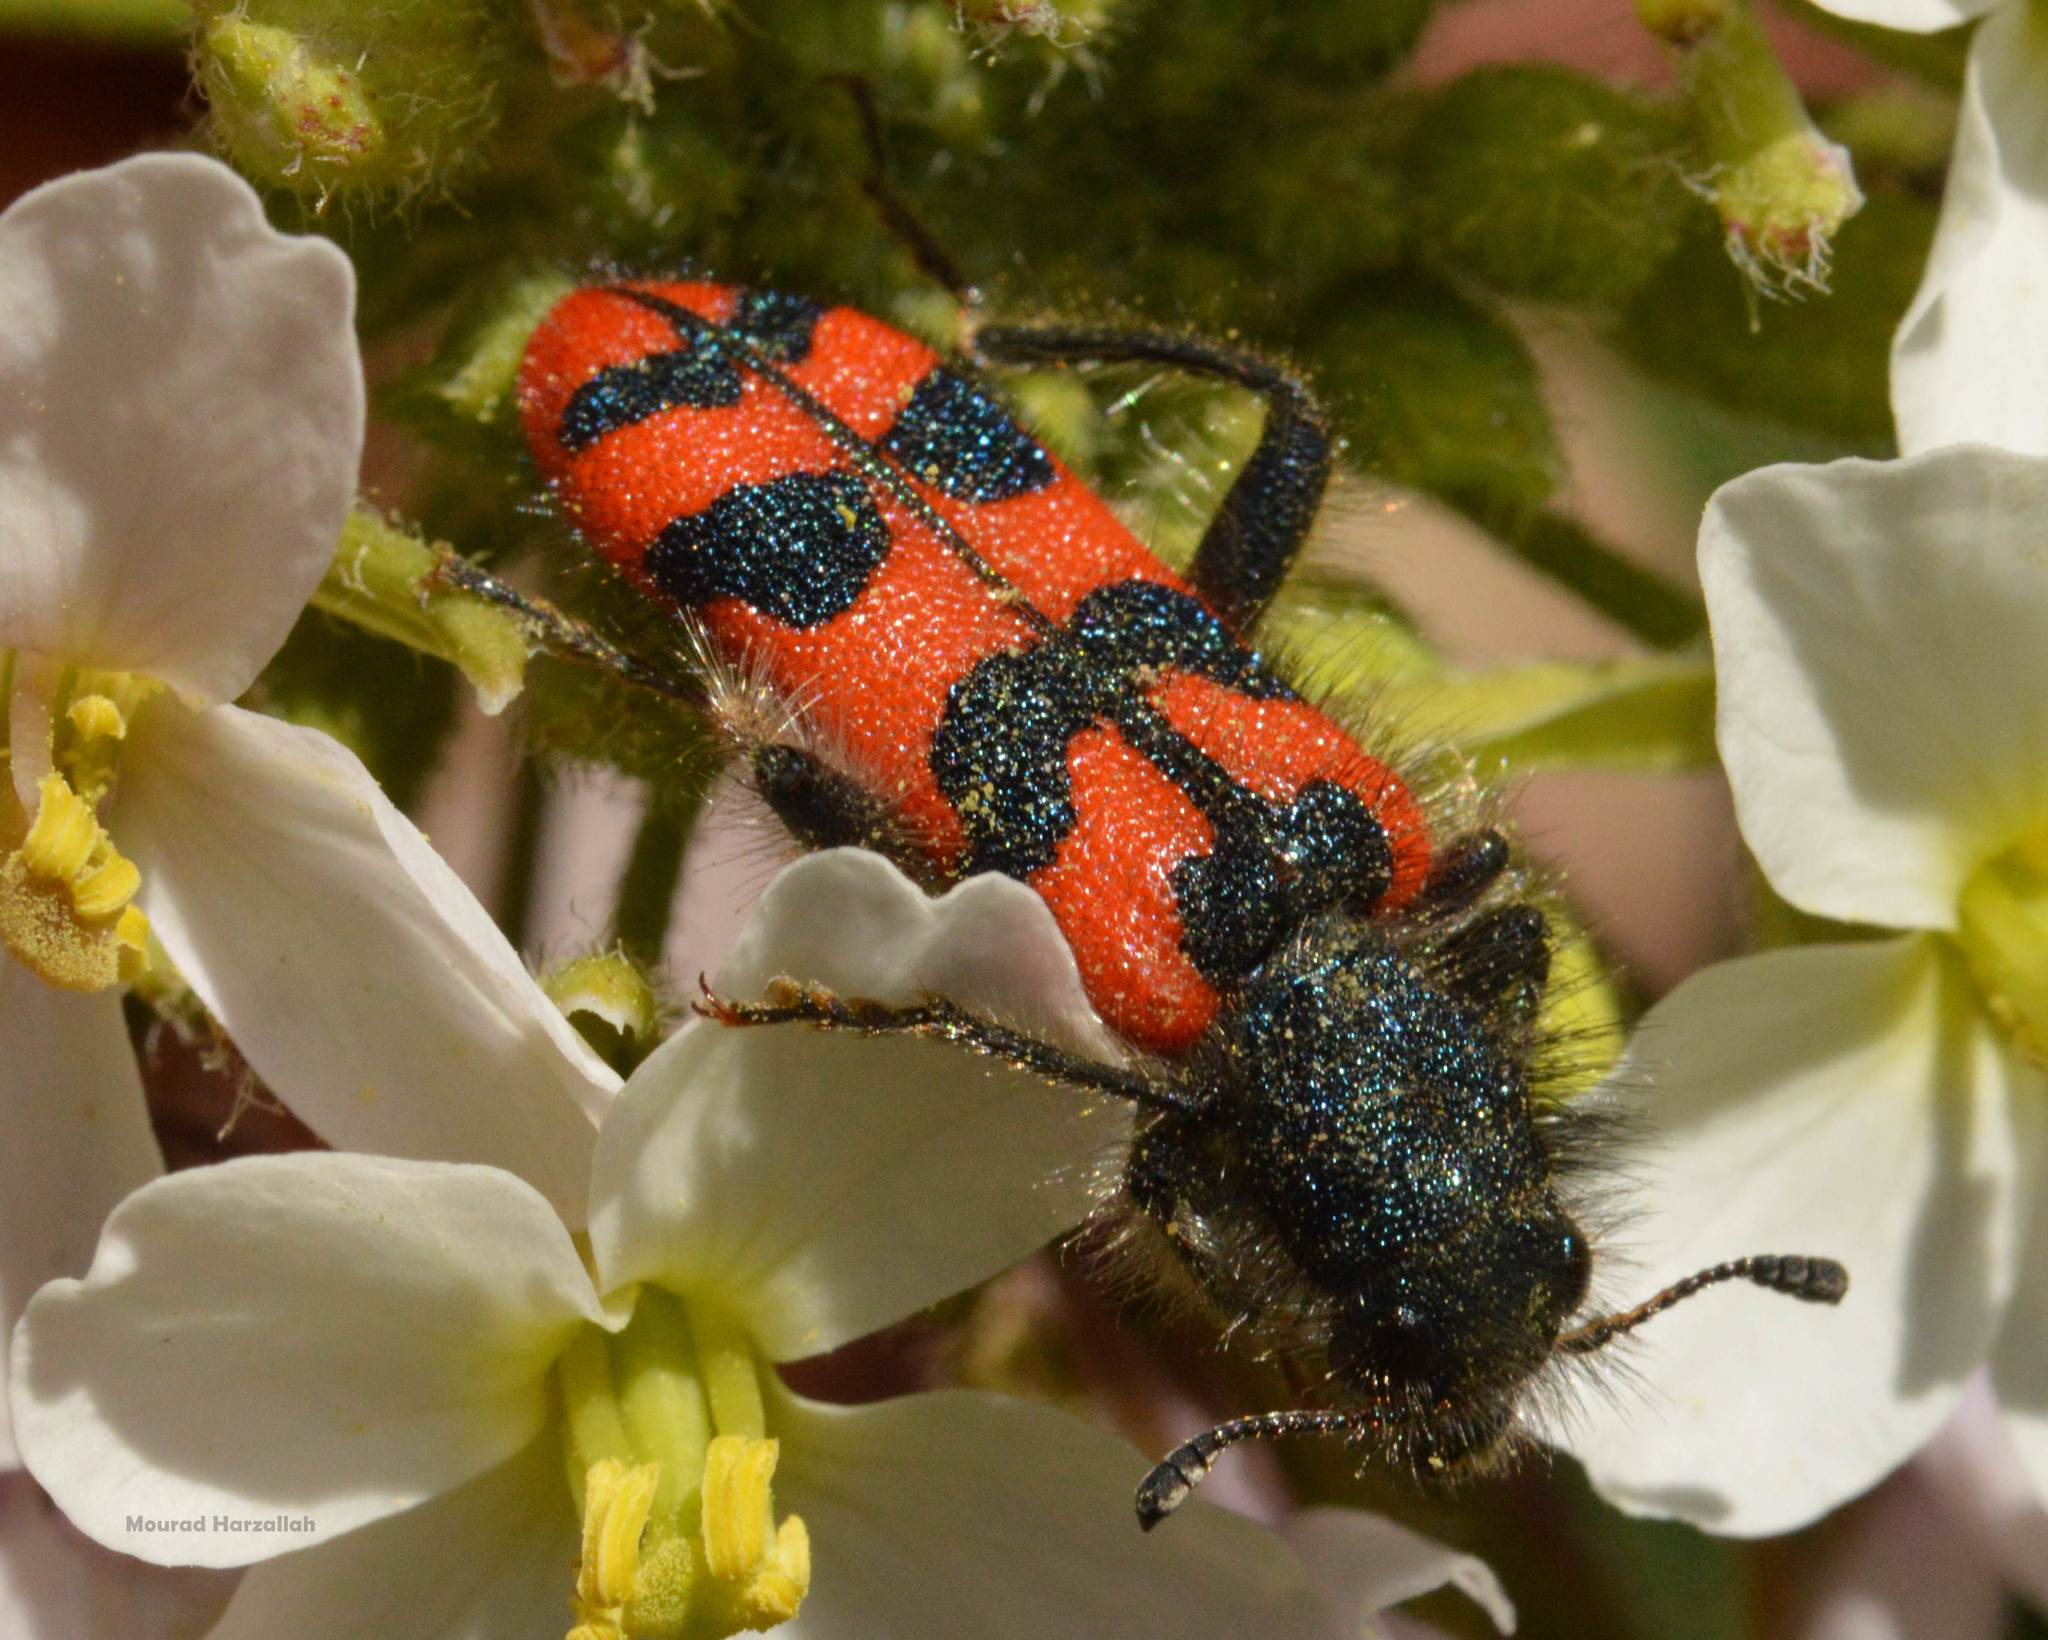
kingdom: Animalia
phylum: Arthropoda
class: Insecta
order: Coleoptera
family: Cleridae
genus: Trichodes
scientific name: Trichodes umbellatarum
